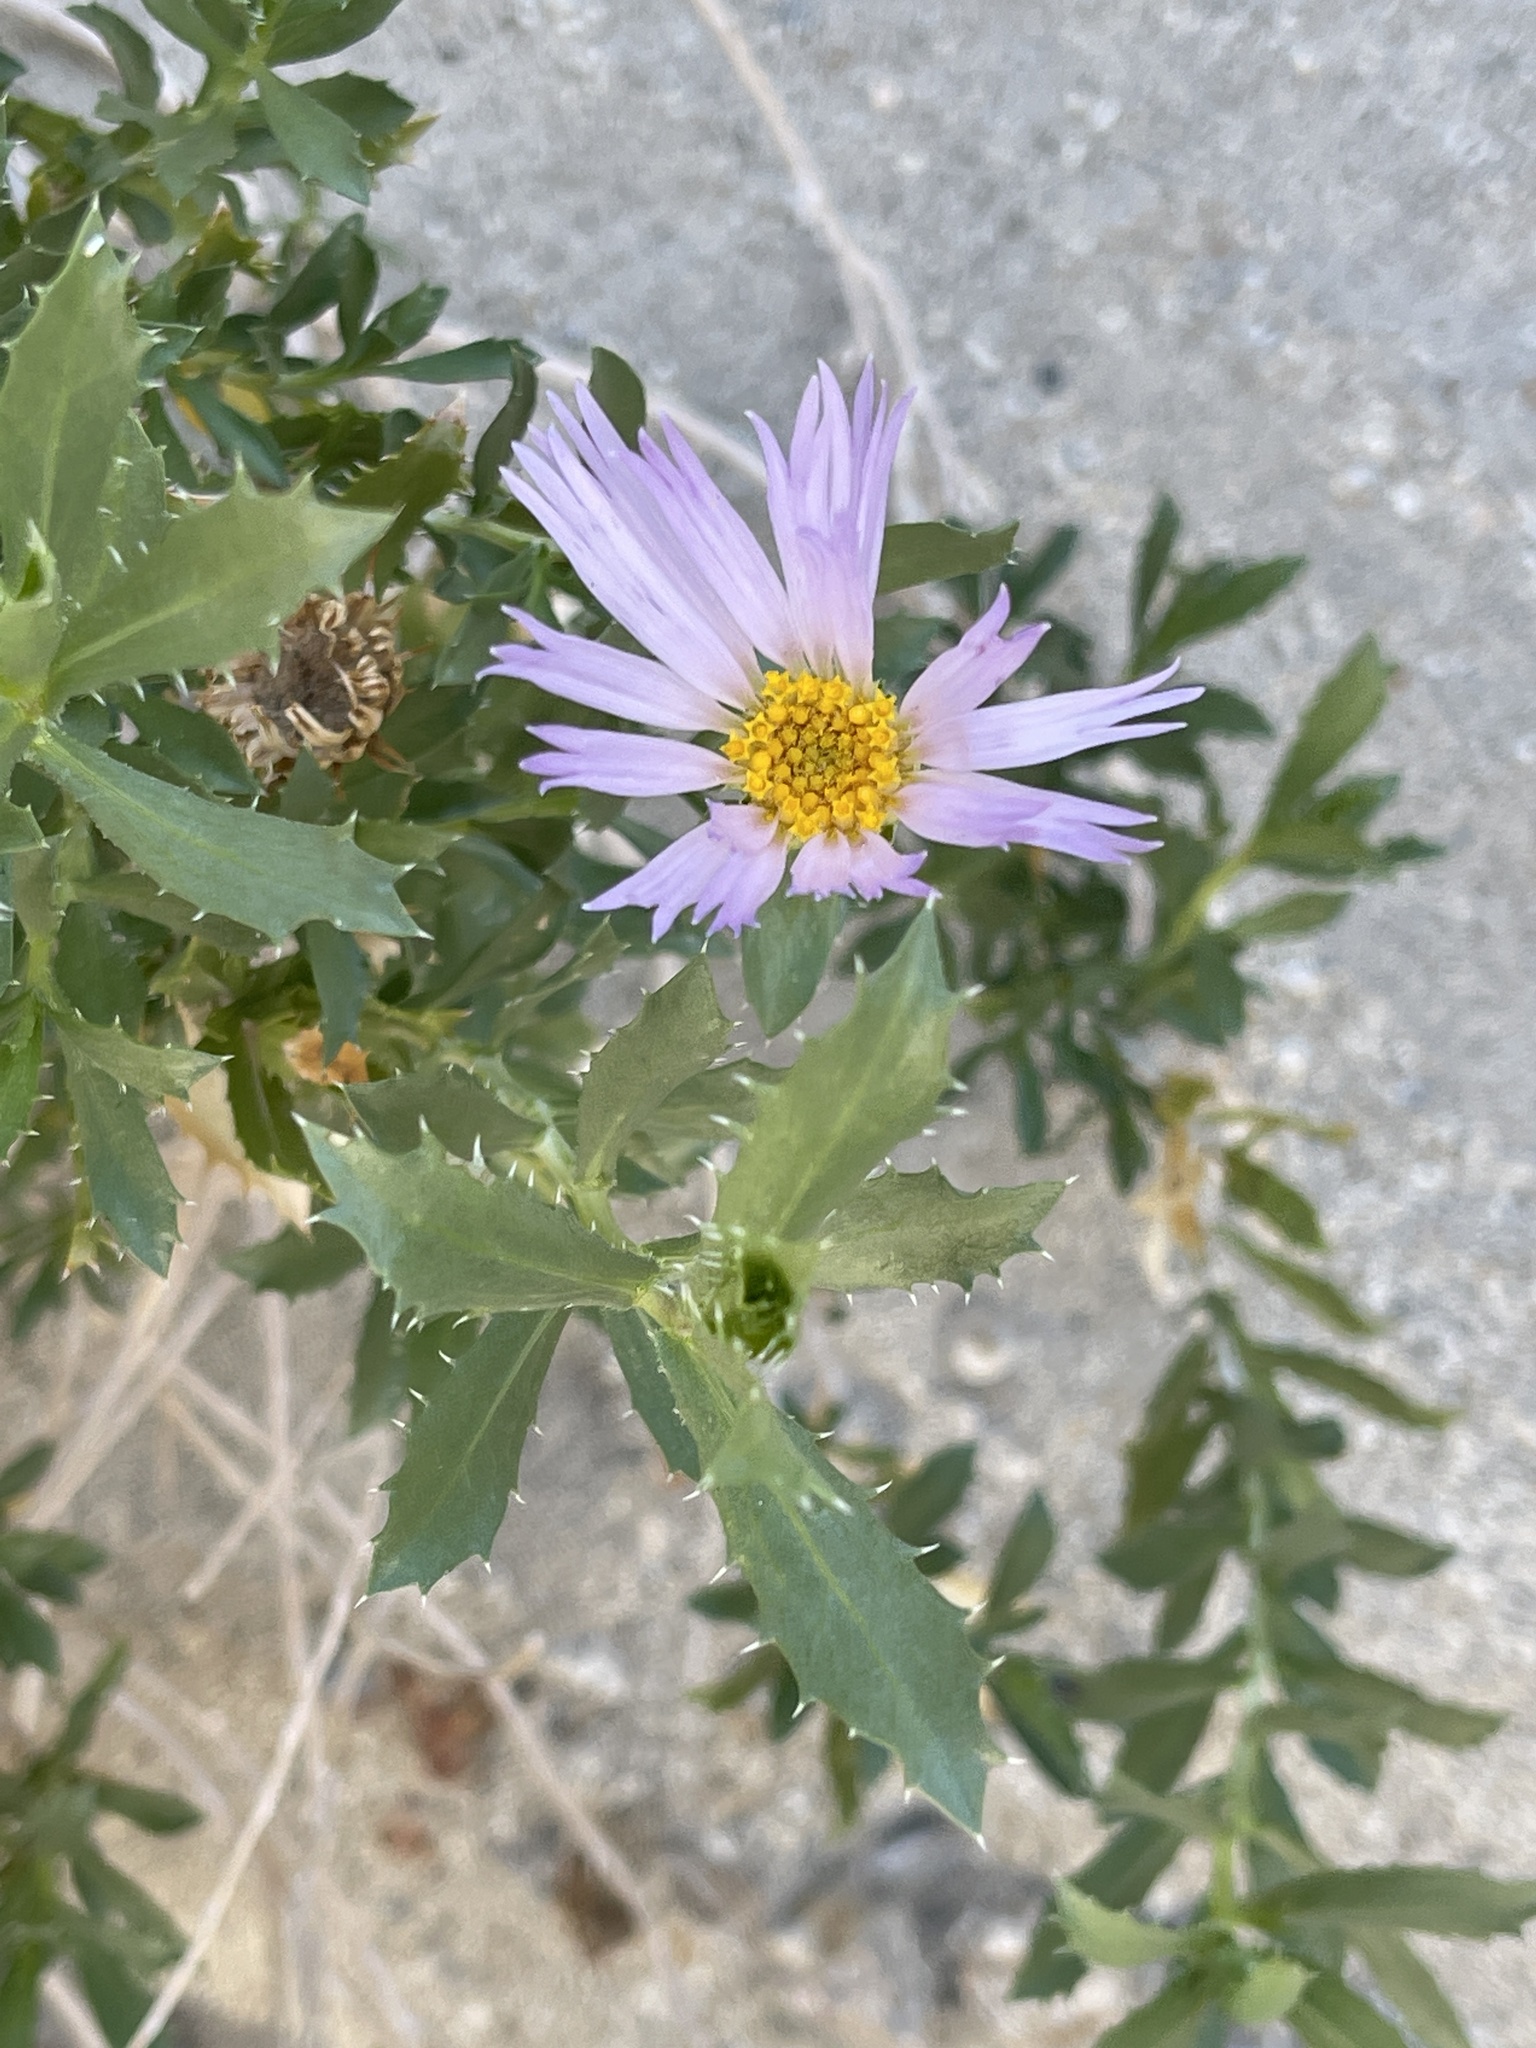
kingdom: Plantae
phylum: Tracheophyta
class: Magnoliopsida
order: Asterales
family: Asteraceae
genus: Xylorhiza
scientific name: Xylorhiza orcuttii
